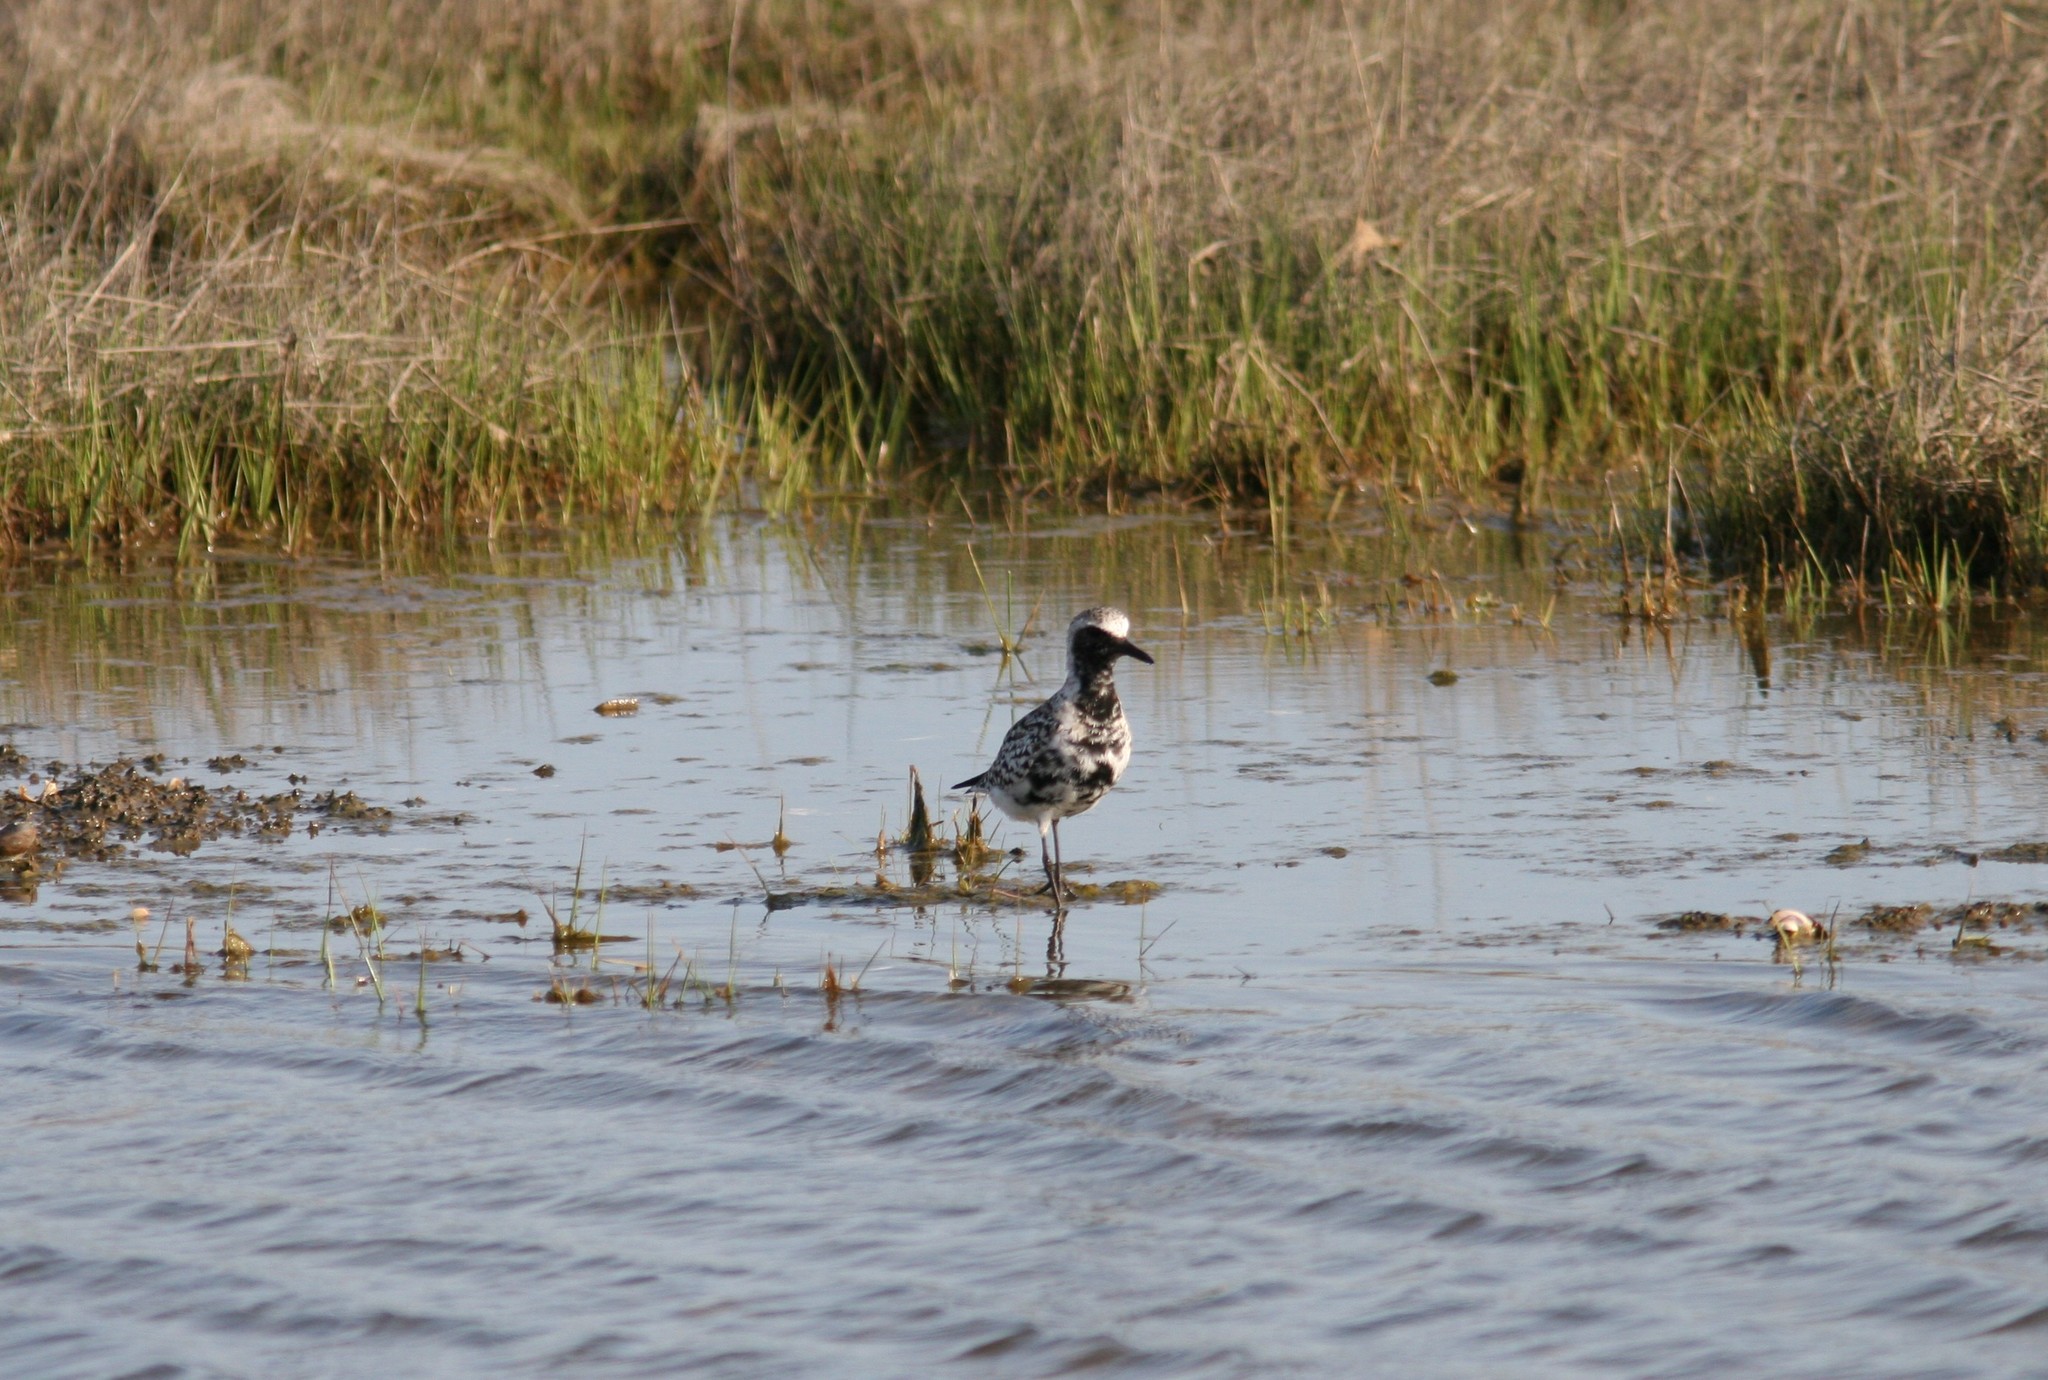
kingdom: Animalia
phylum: Chordata
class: Aves
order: Charadriiformes
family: Charadriidae
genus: Pluvialis
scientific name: Pluvialis squatarola
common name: Grey plover
